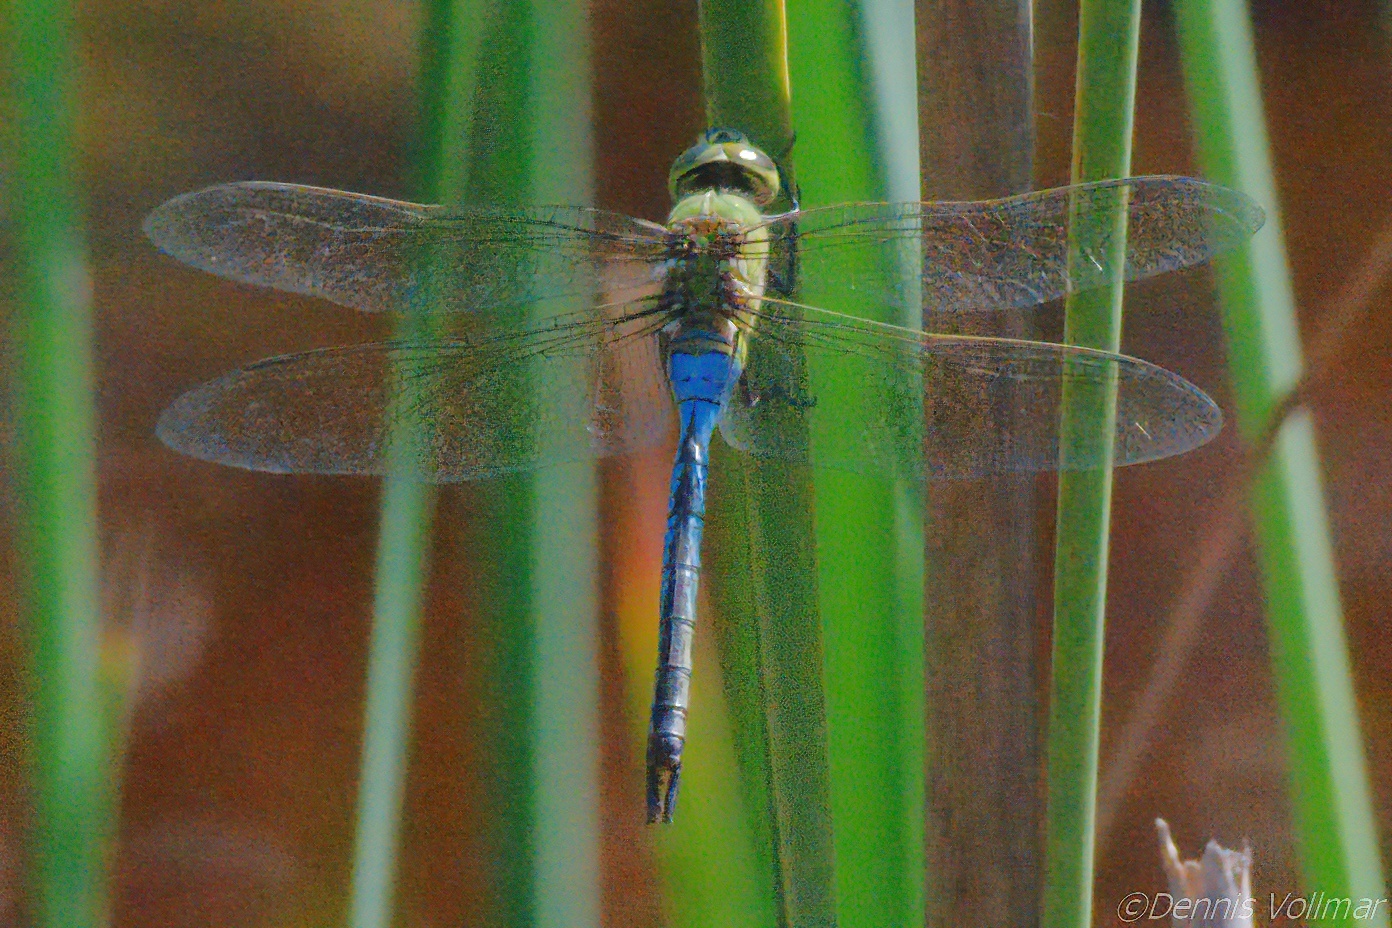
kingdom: Animalia
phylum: Arthropoda
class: Insecta
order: Odonata
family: Aeshnidae
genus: Anax
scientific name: Anax junius
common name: Common green darner
